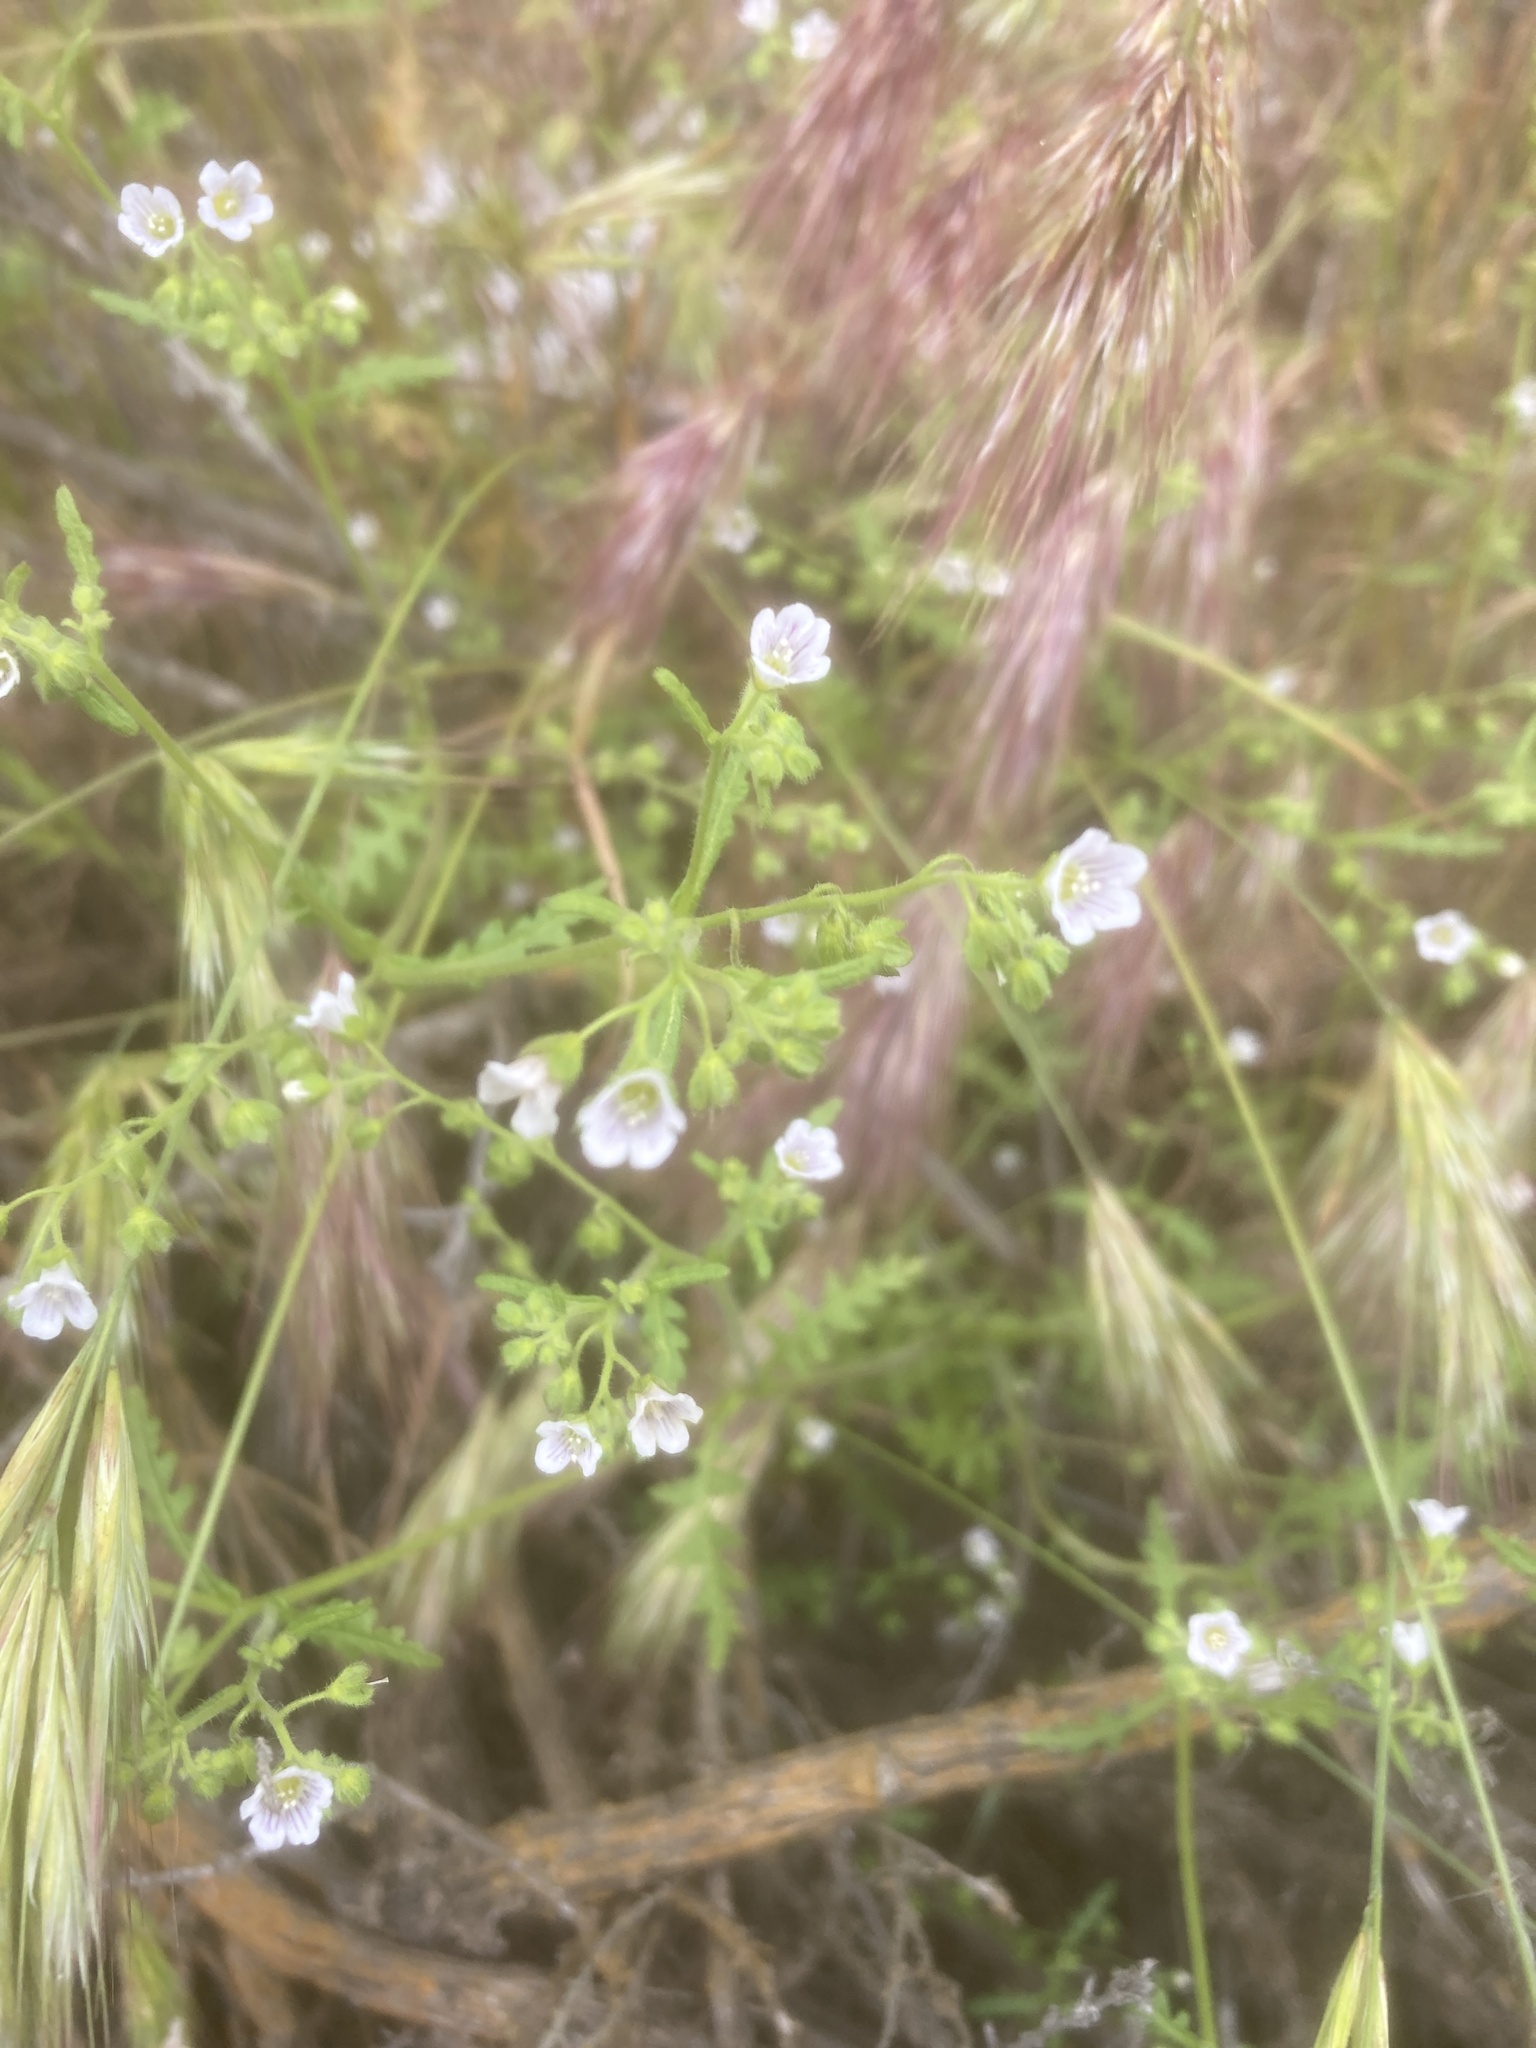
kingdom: Plantae
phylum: Tracheophyta
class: Magnoliopsida
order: Boraginales
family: Hydrophyllaceae
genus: Eucrypta
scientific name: Eucrypta chrysanthemifolia
